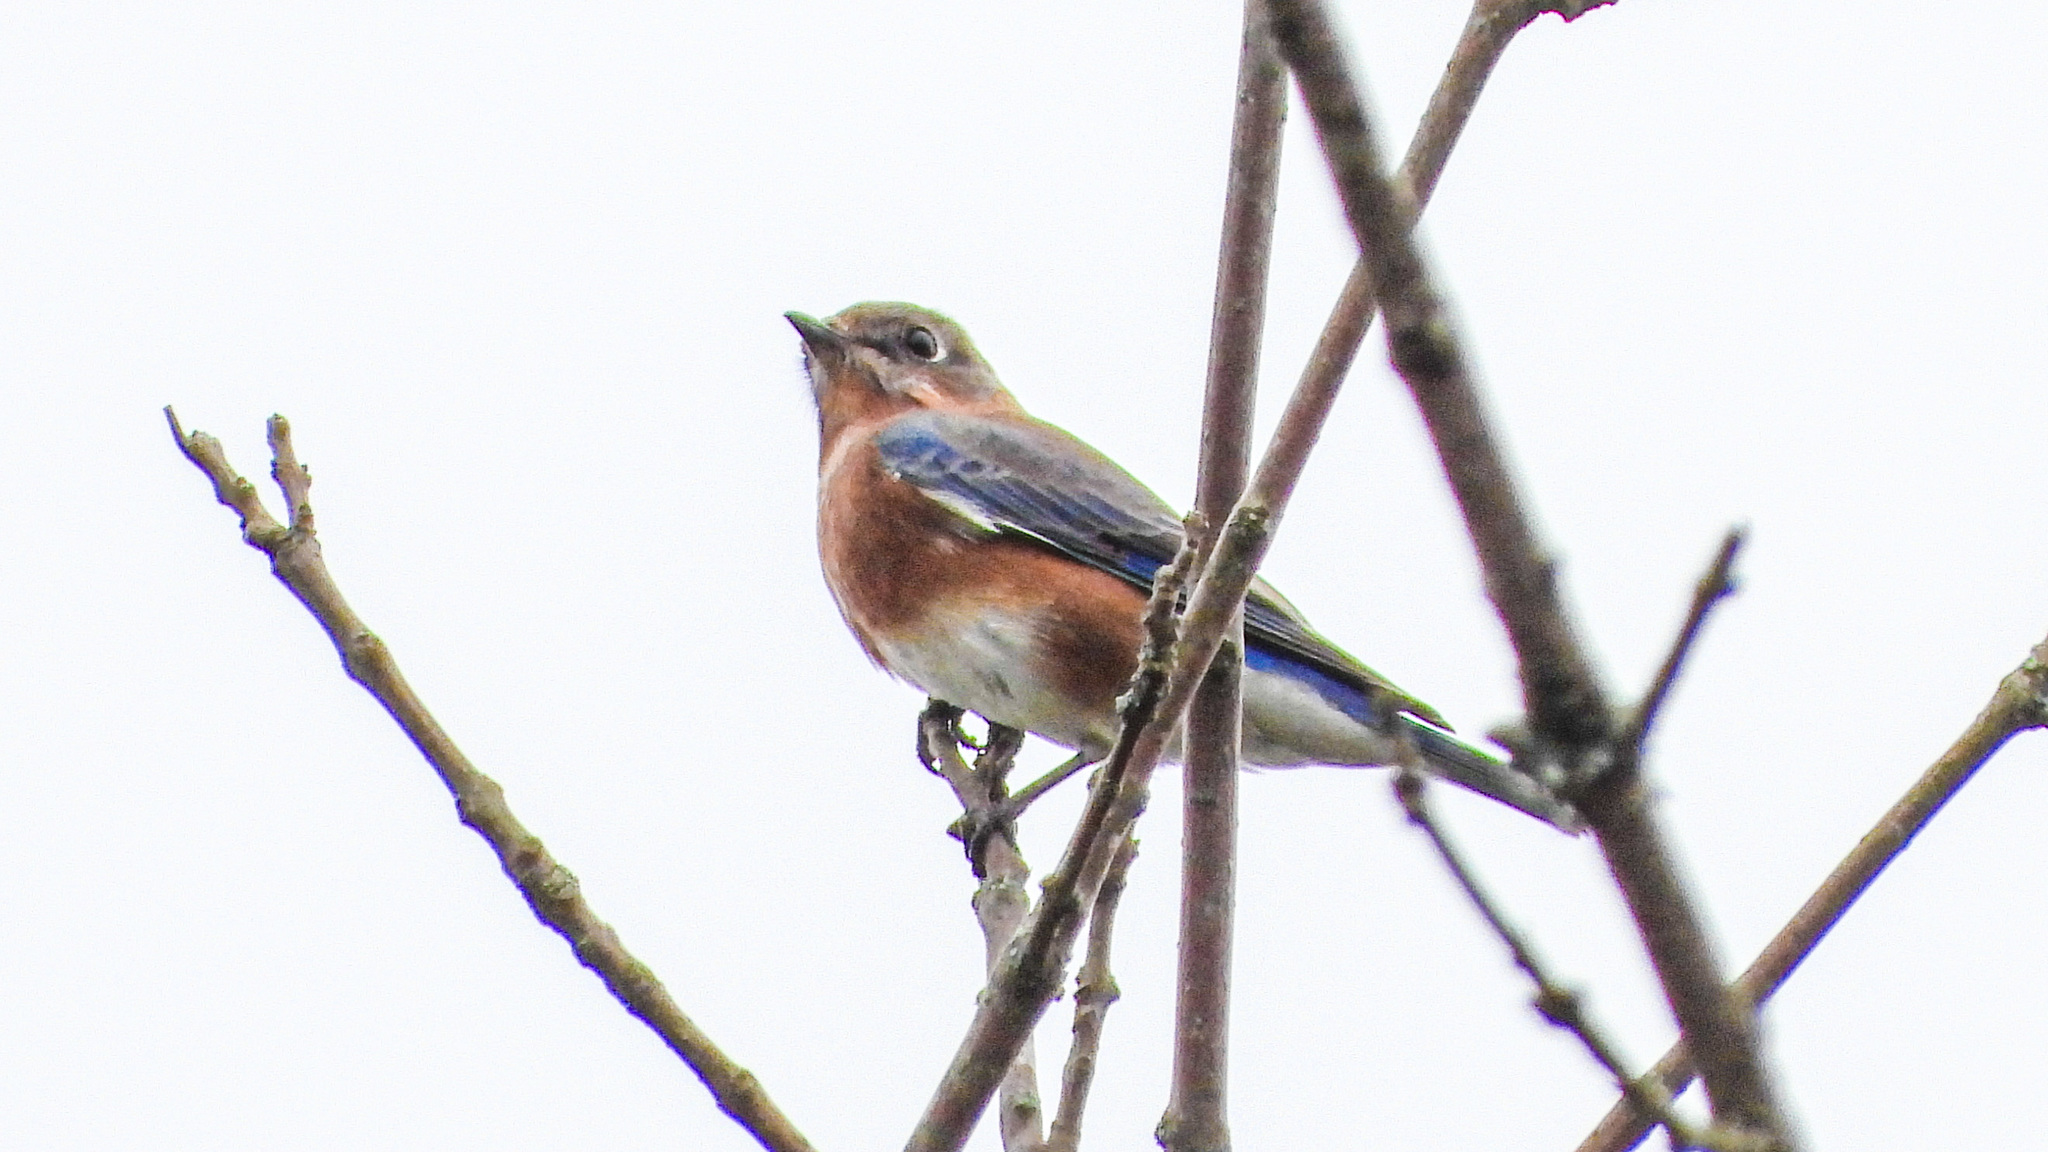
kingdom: Animalia
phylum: Chordata
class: Aves
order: Passeriformes
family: Turdidae
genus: Sialia
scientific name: Sialia sialis
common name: Eastern bluebird
